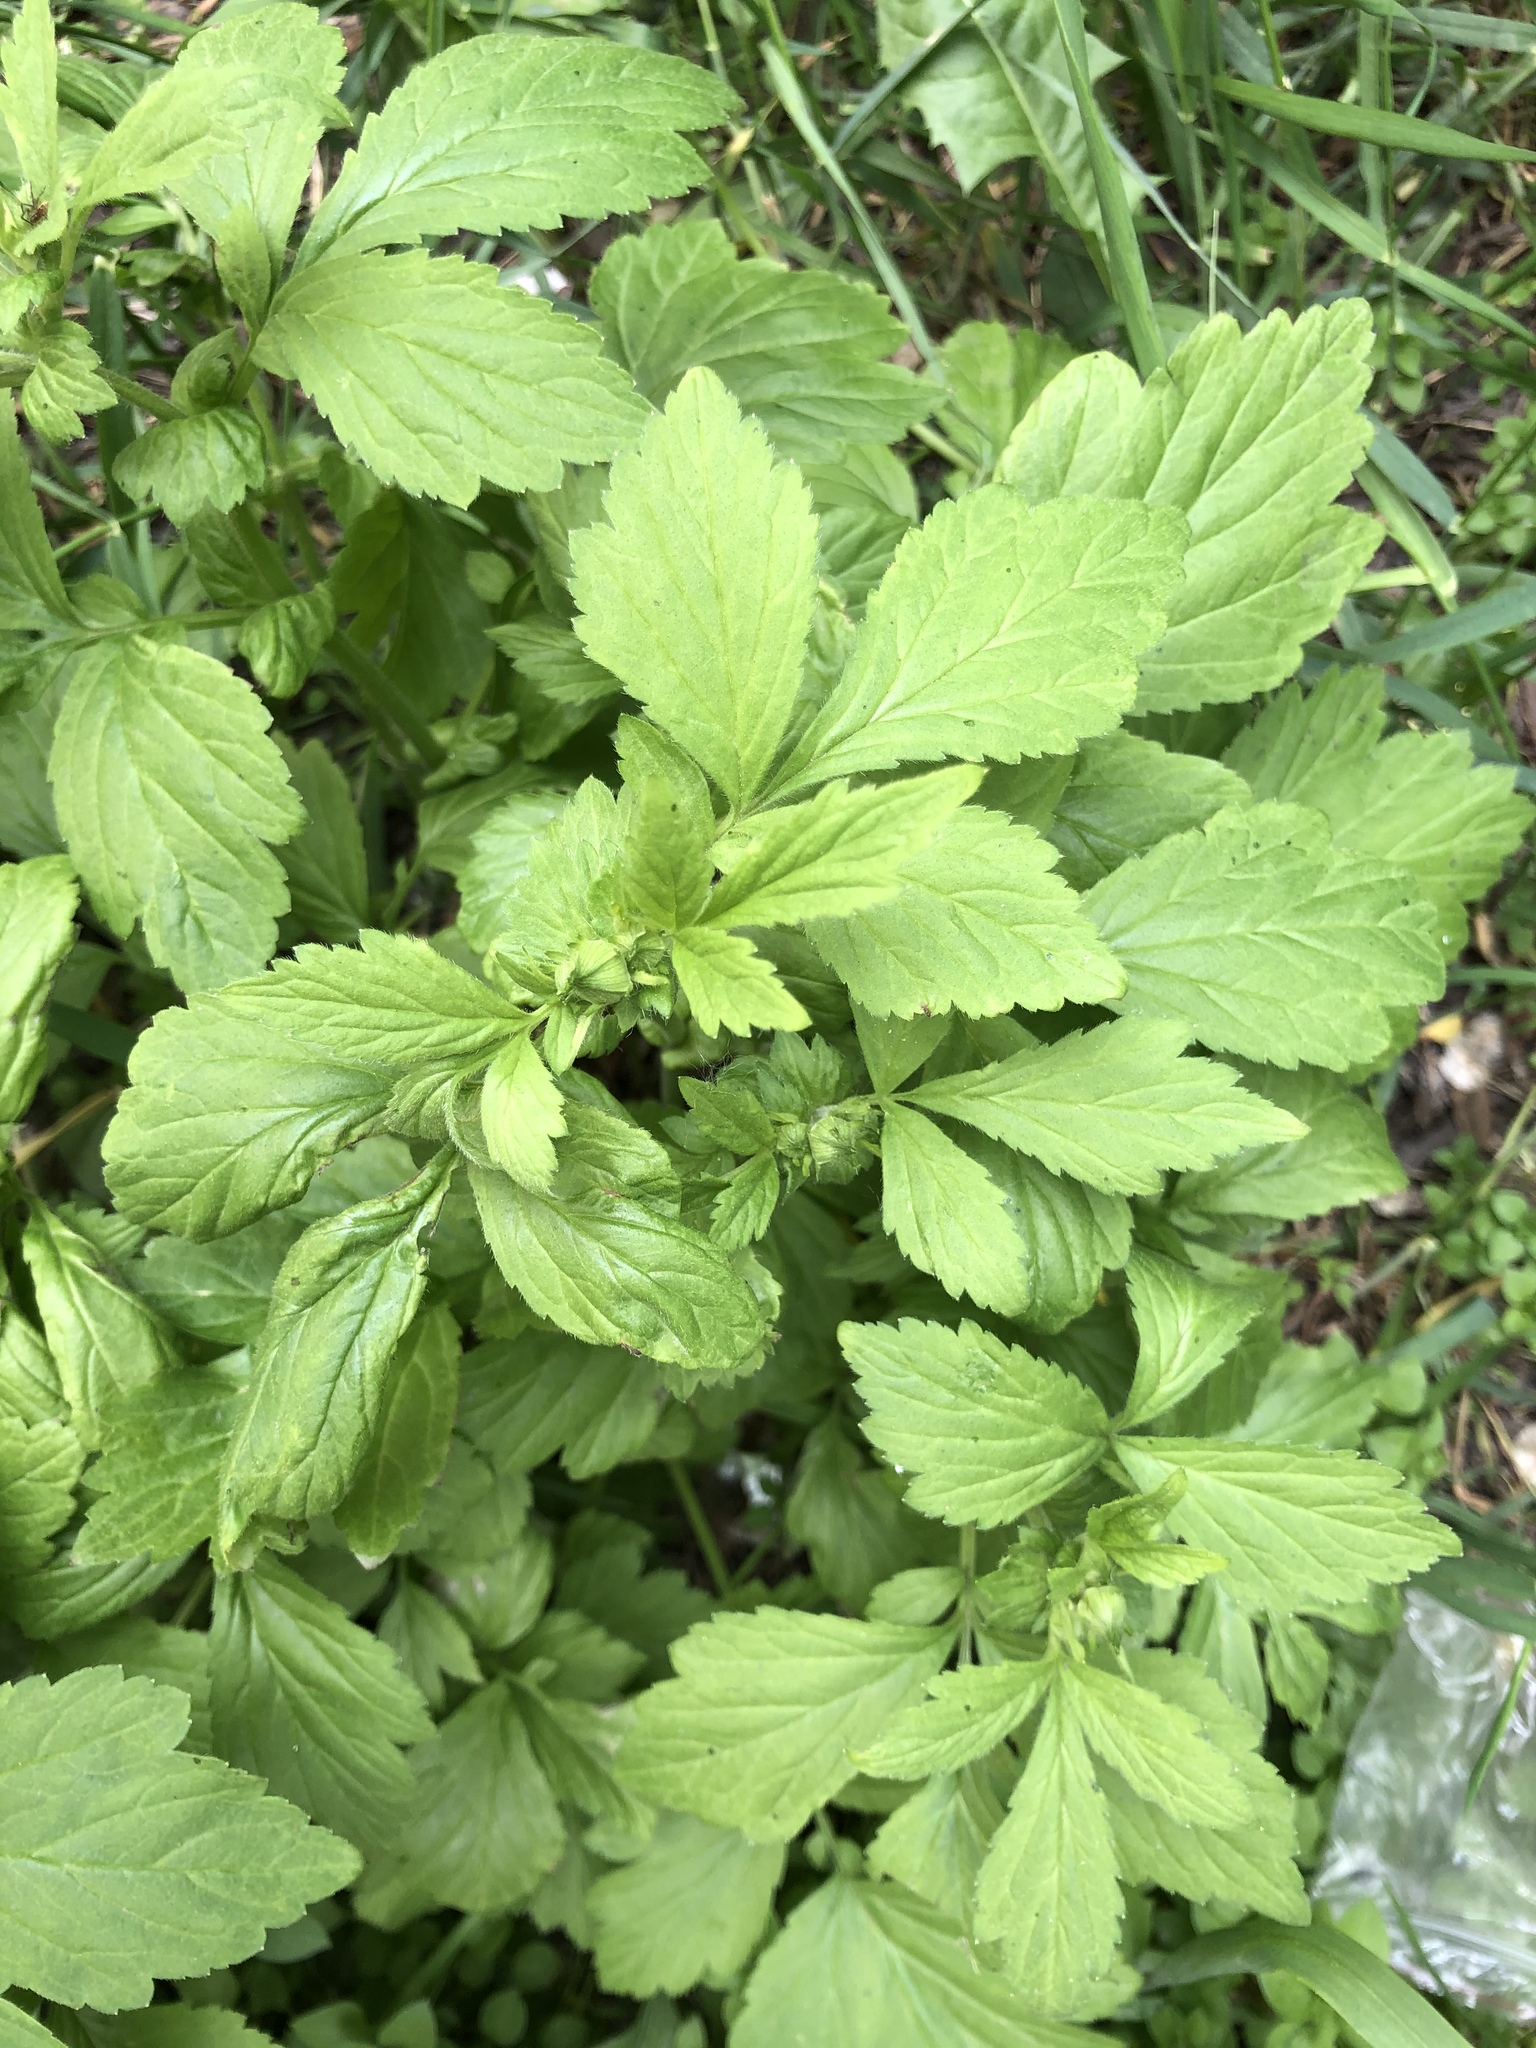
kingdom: Plantae
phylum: Tracheophyta
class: Magnoliopsida
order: Rosales
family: Rosaceae
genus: Geum
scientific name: Geum aleppicum
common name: Yellow avens
